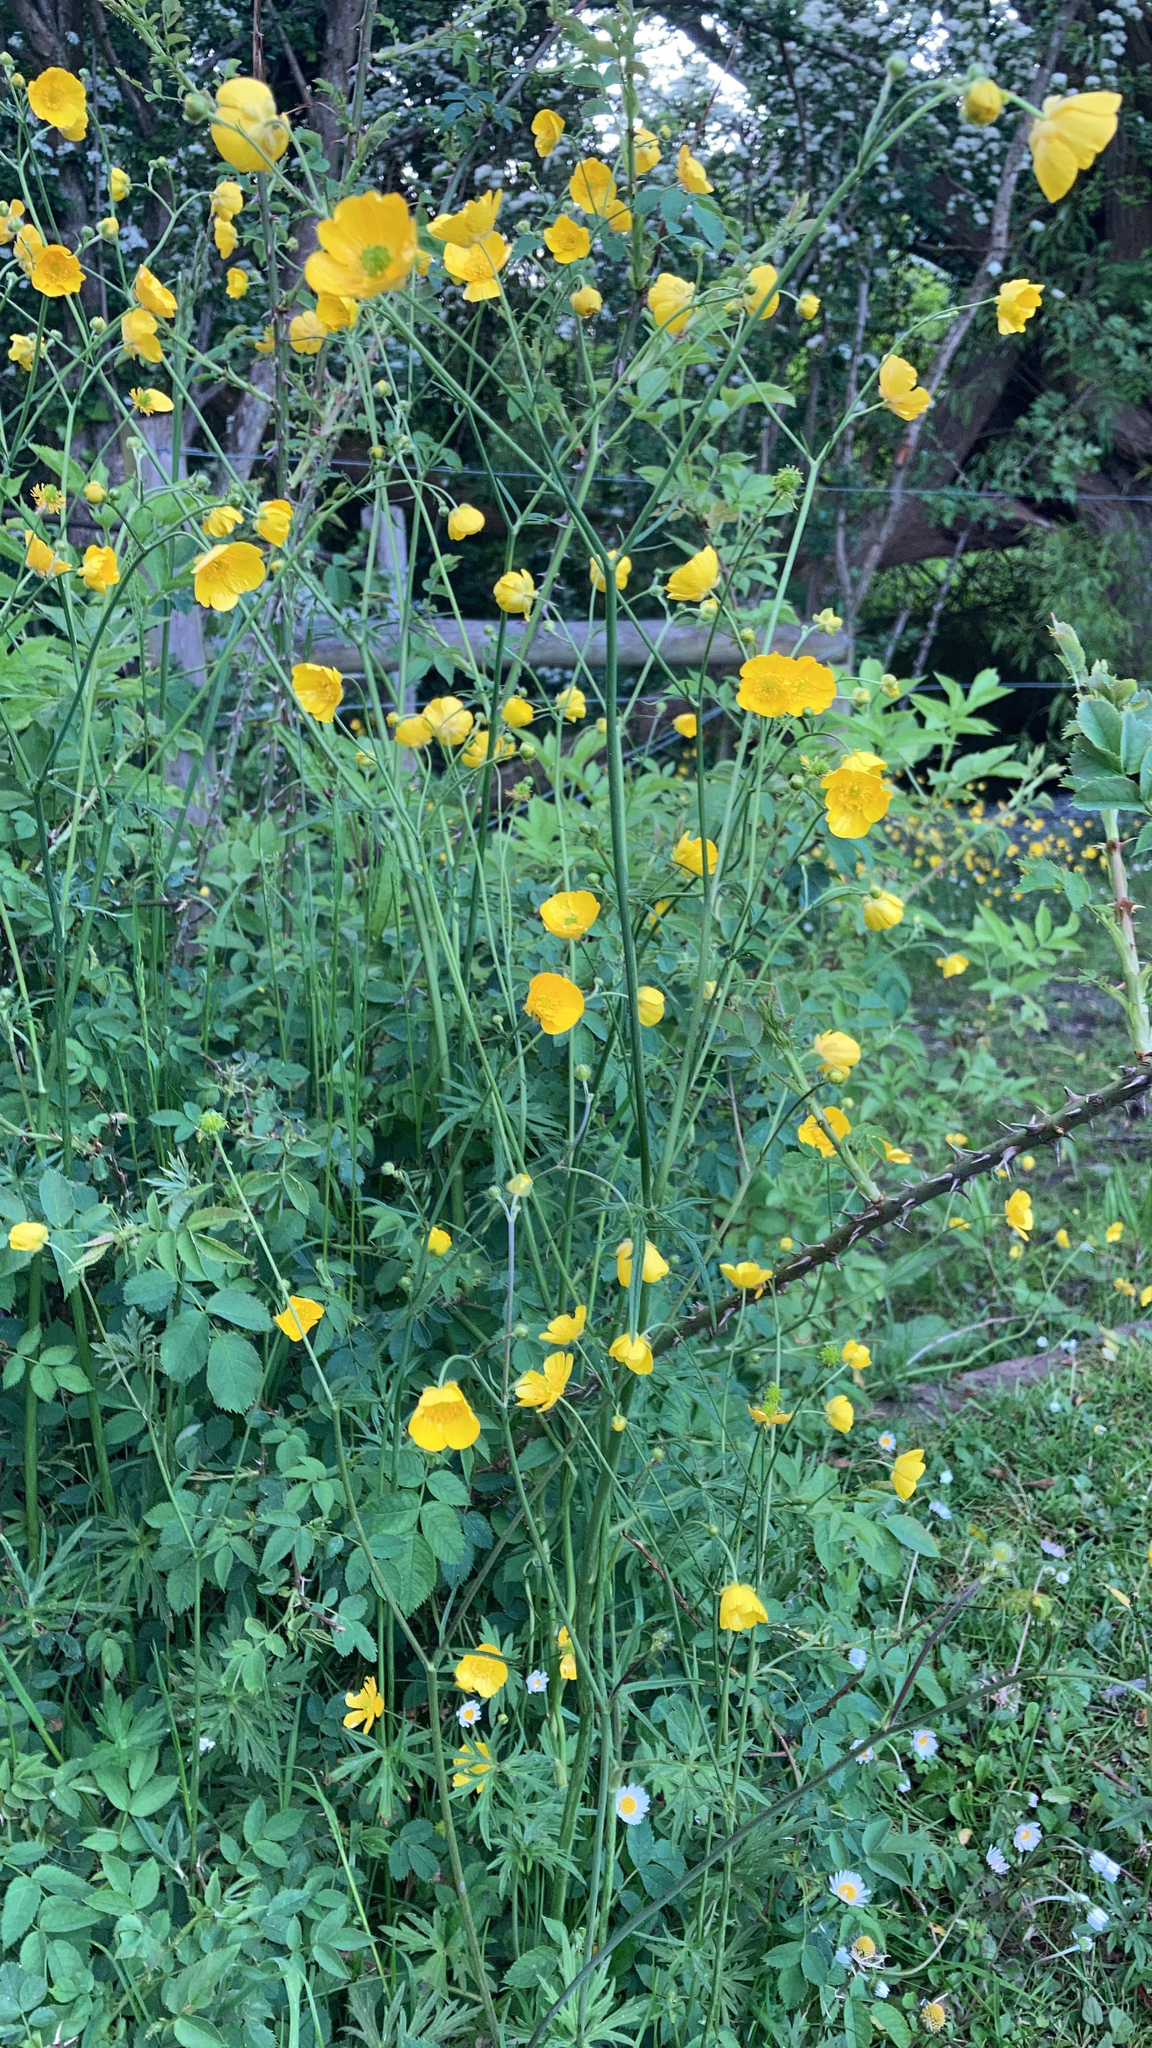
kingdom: Plantae
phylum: Tracheophyta
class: Magnoliopsida
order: Ranunculales
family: Ranunculaceae
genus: Ranunculus
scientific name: Ranunculus acris
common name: Meadow buttercup
